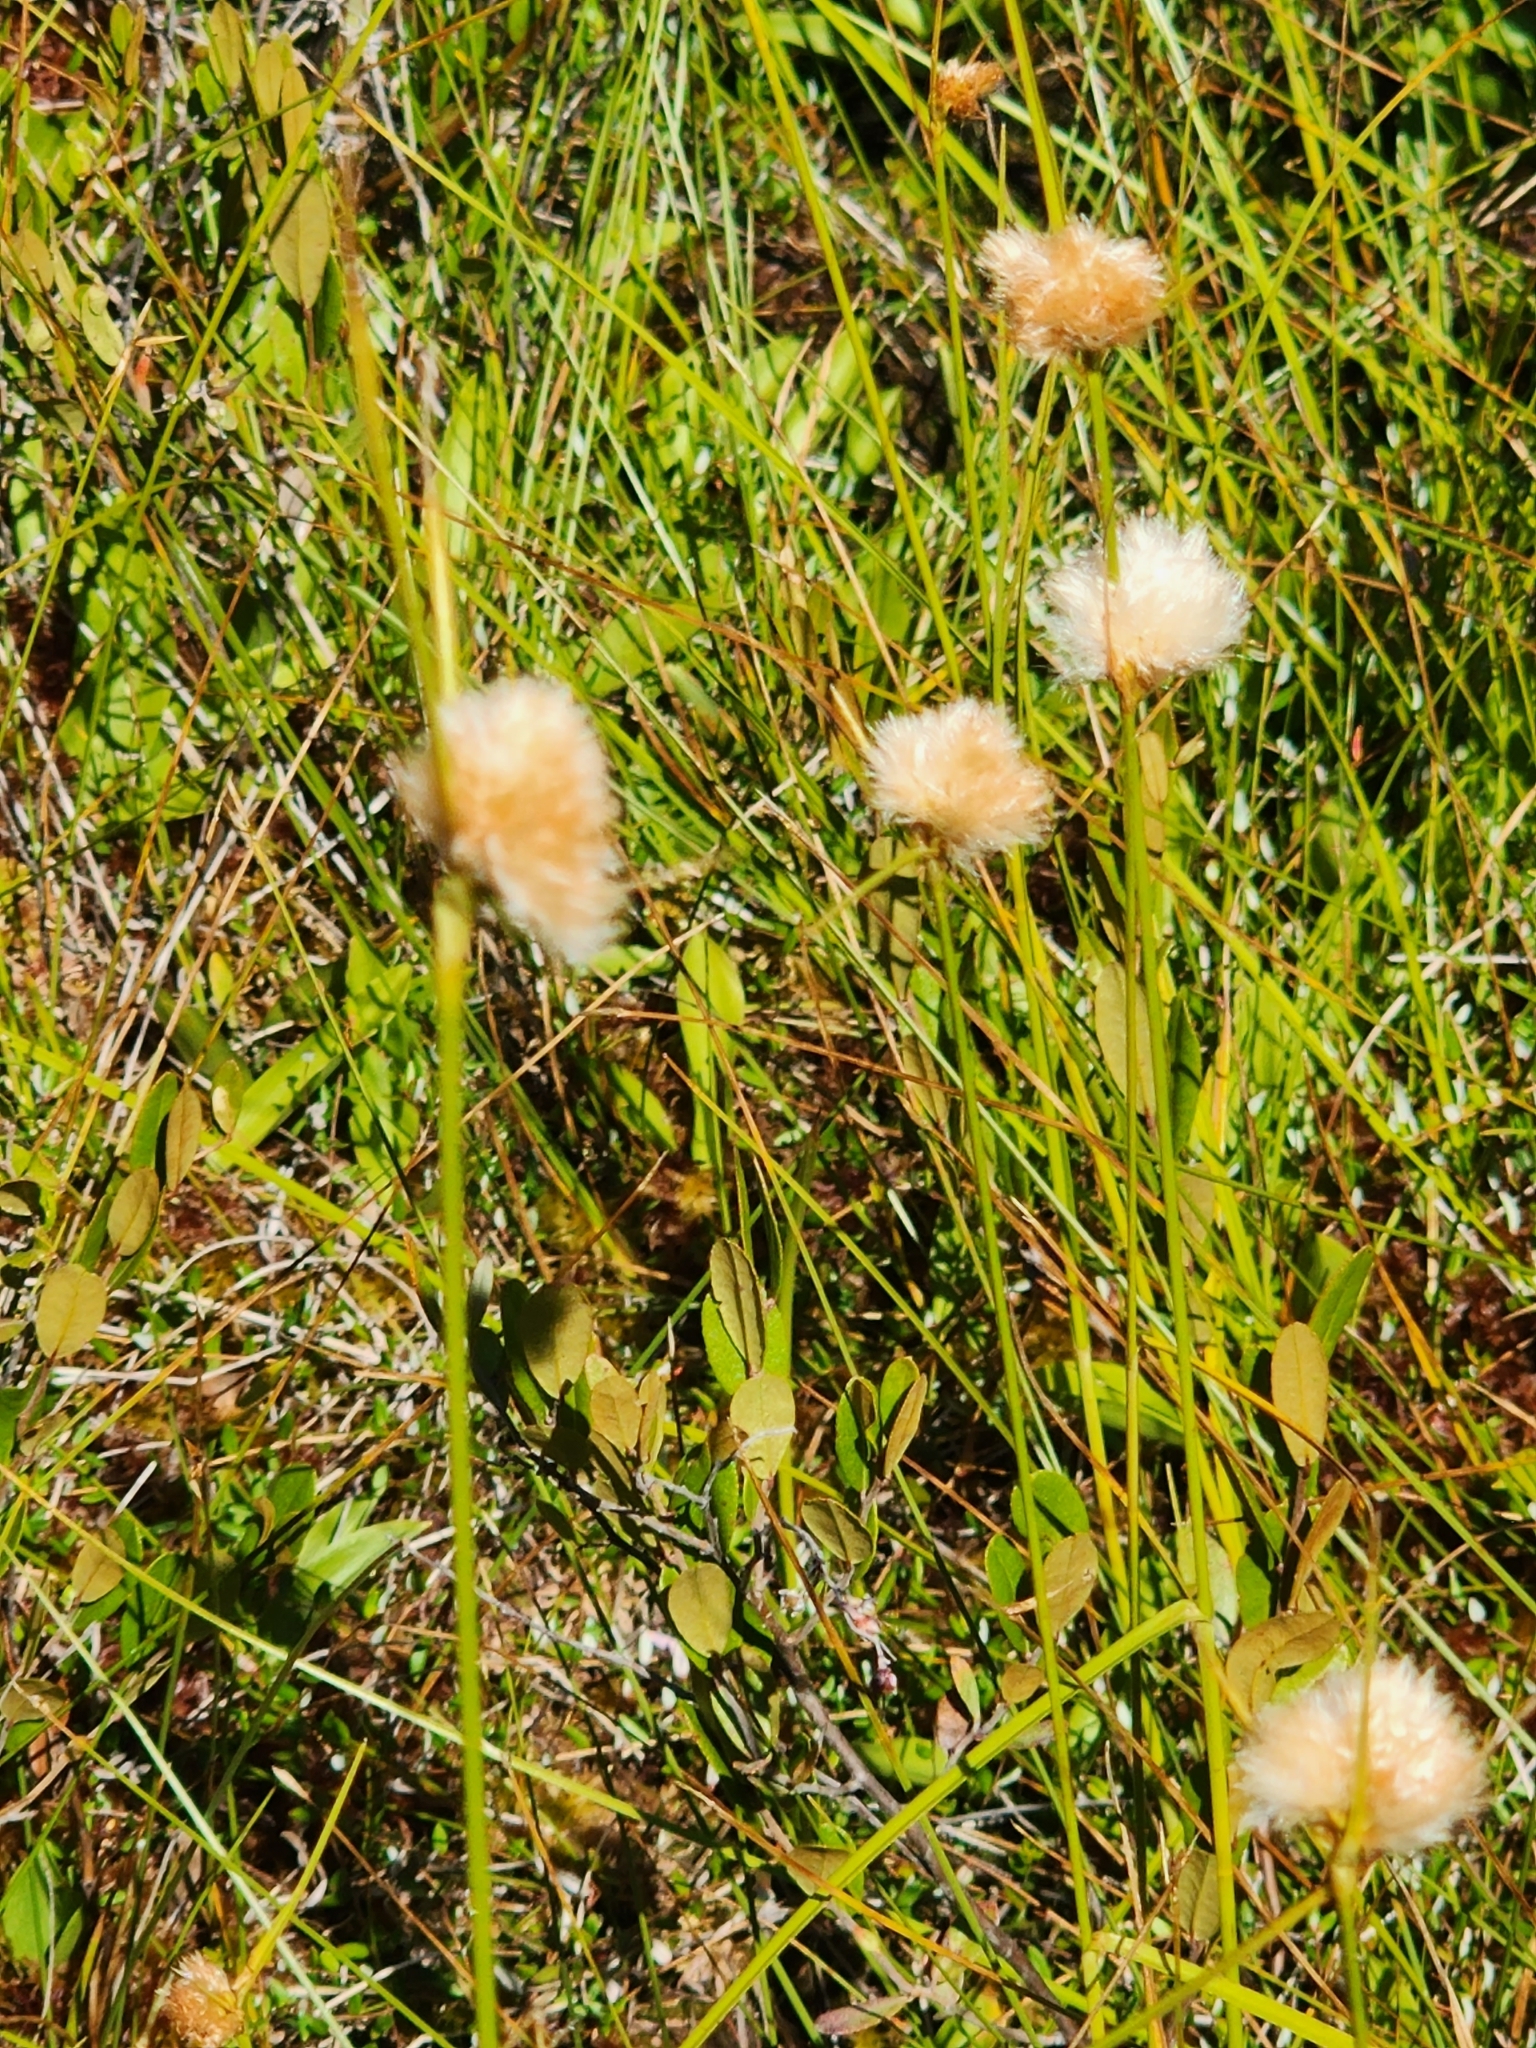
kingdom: Plantae
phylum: Tracheophyta
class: Liliopsida
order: Poales
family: Cyperaceae
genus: Eriophorum
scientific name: Eriophorum virginicum
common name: Tawny cottongrass
